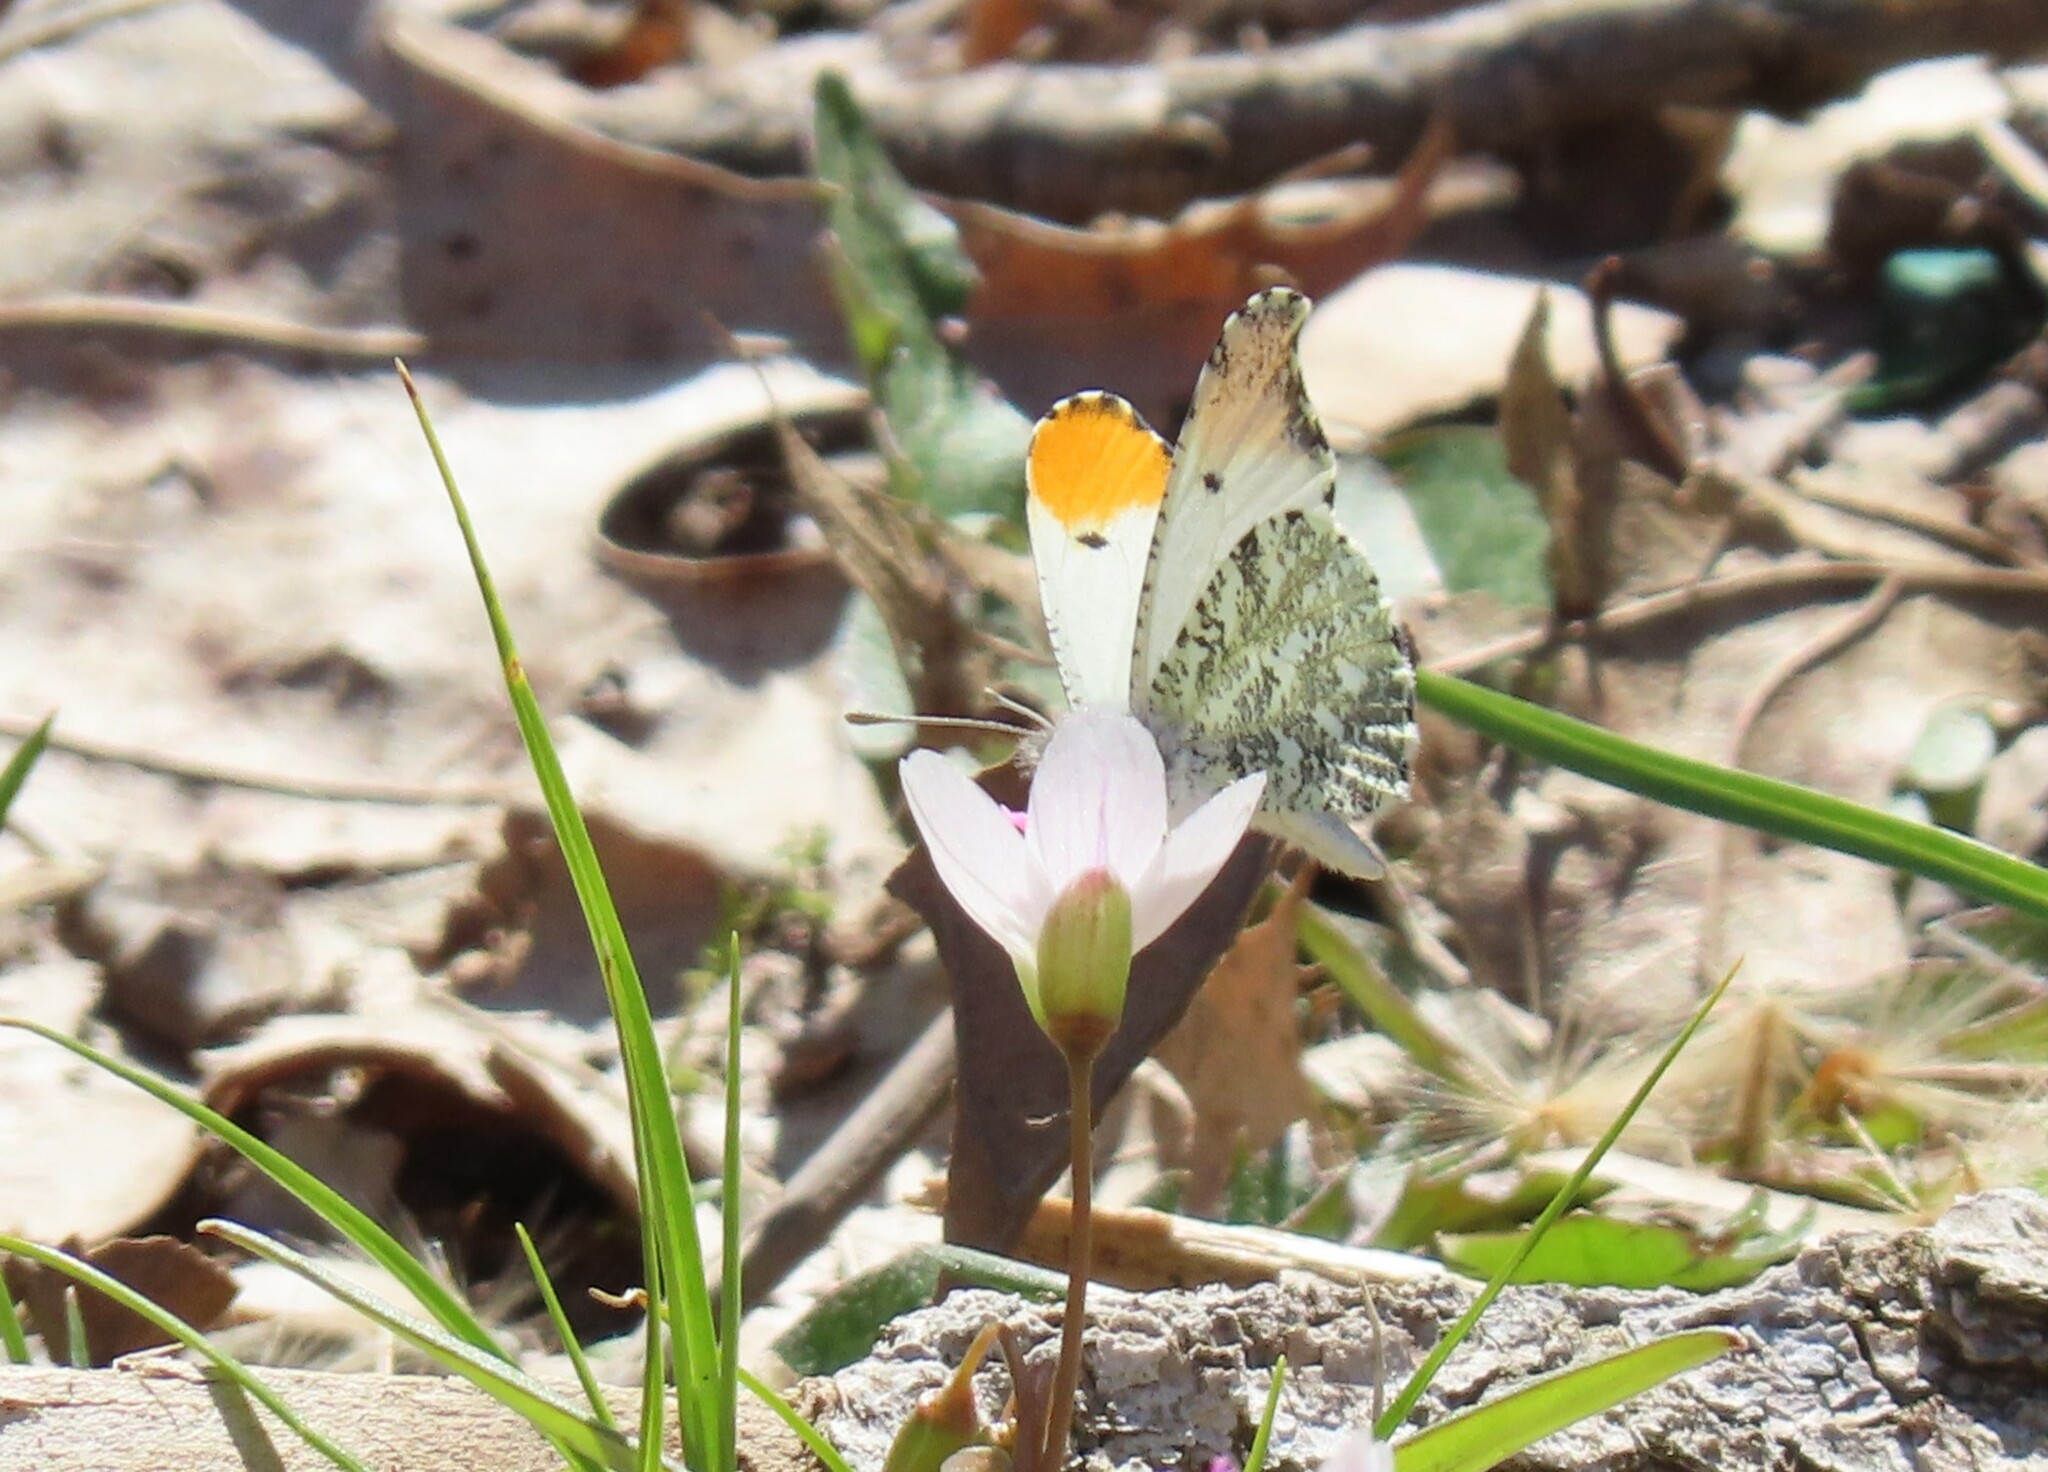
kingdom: Animalia
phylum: Arthropoda
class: Insecta
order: Lepidoptera
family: Pieridae
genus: Anthocharis
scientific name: Anthocharis midea
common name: Falcate orangetip
